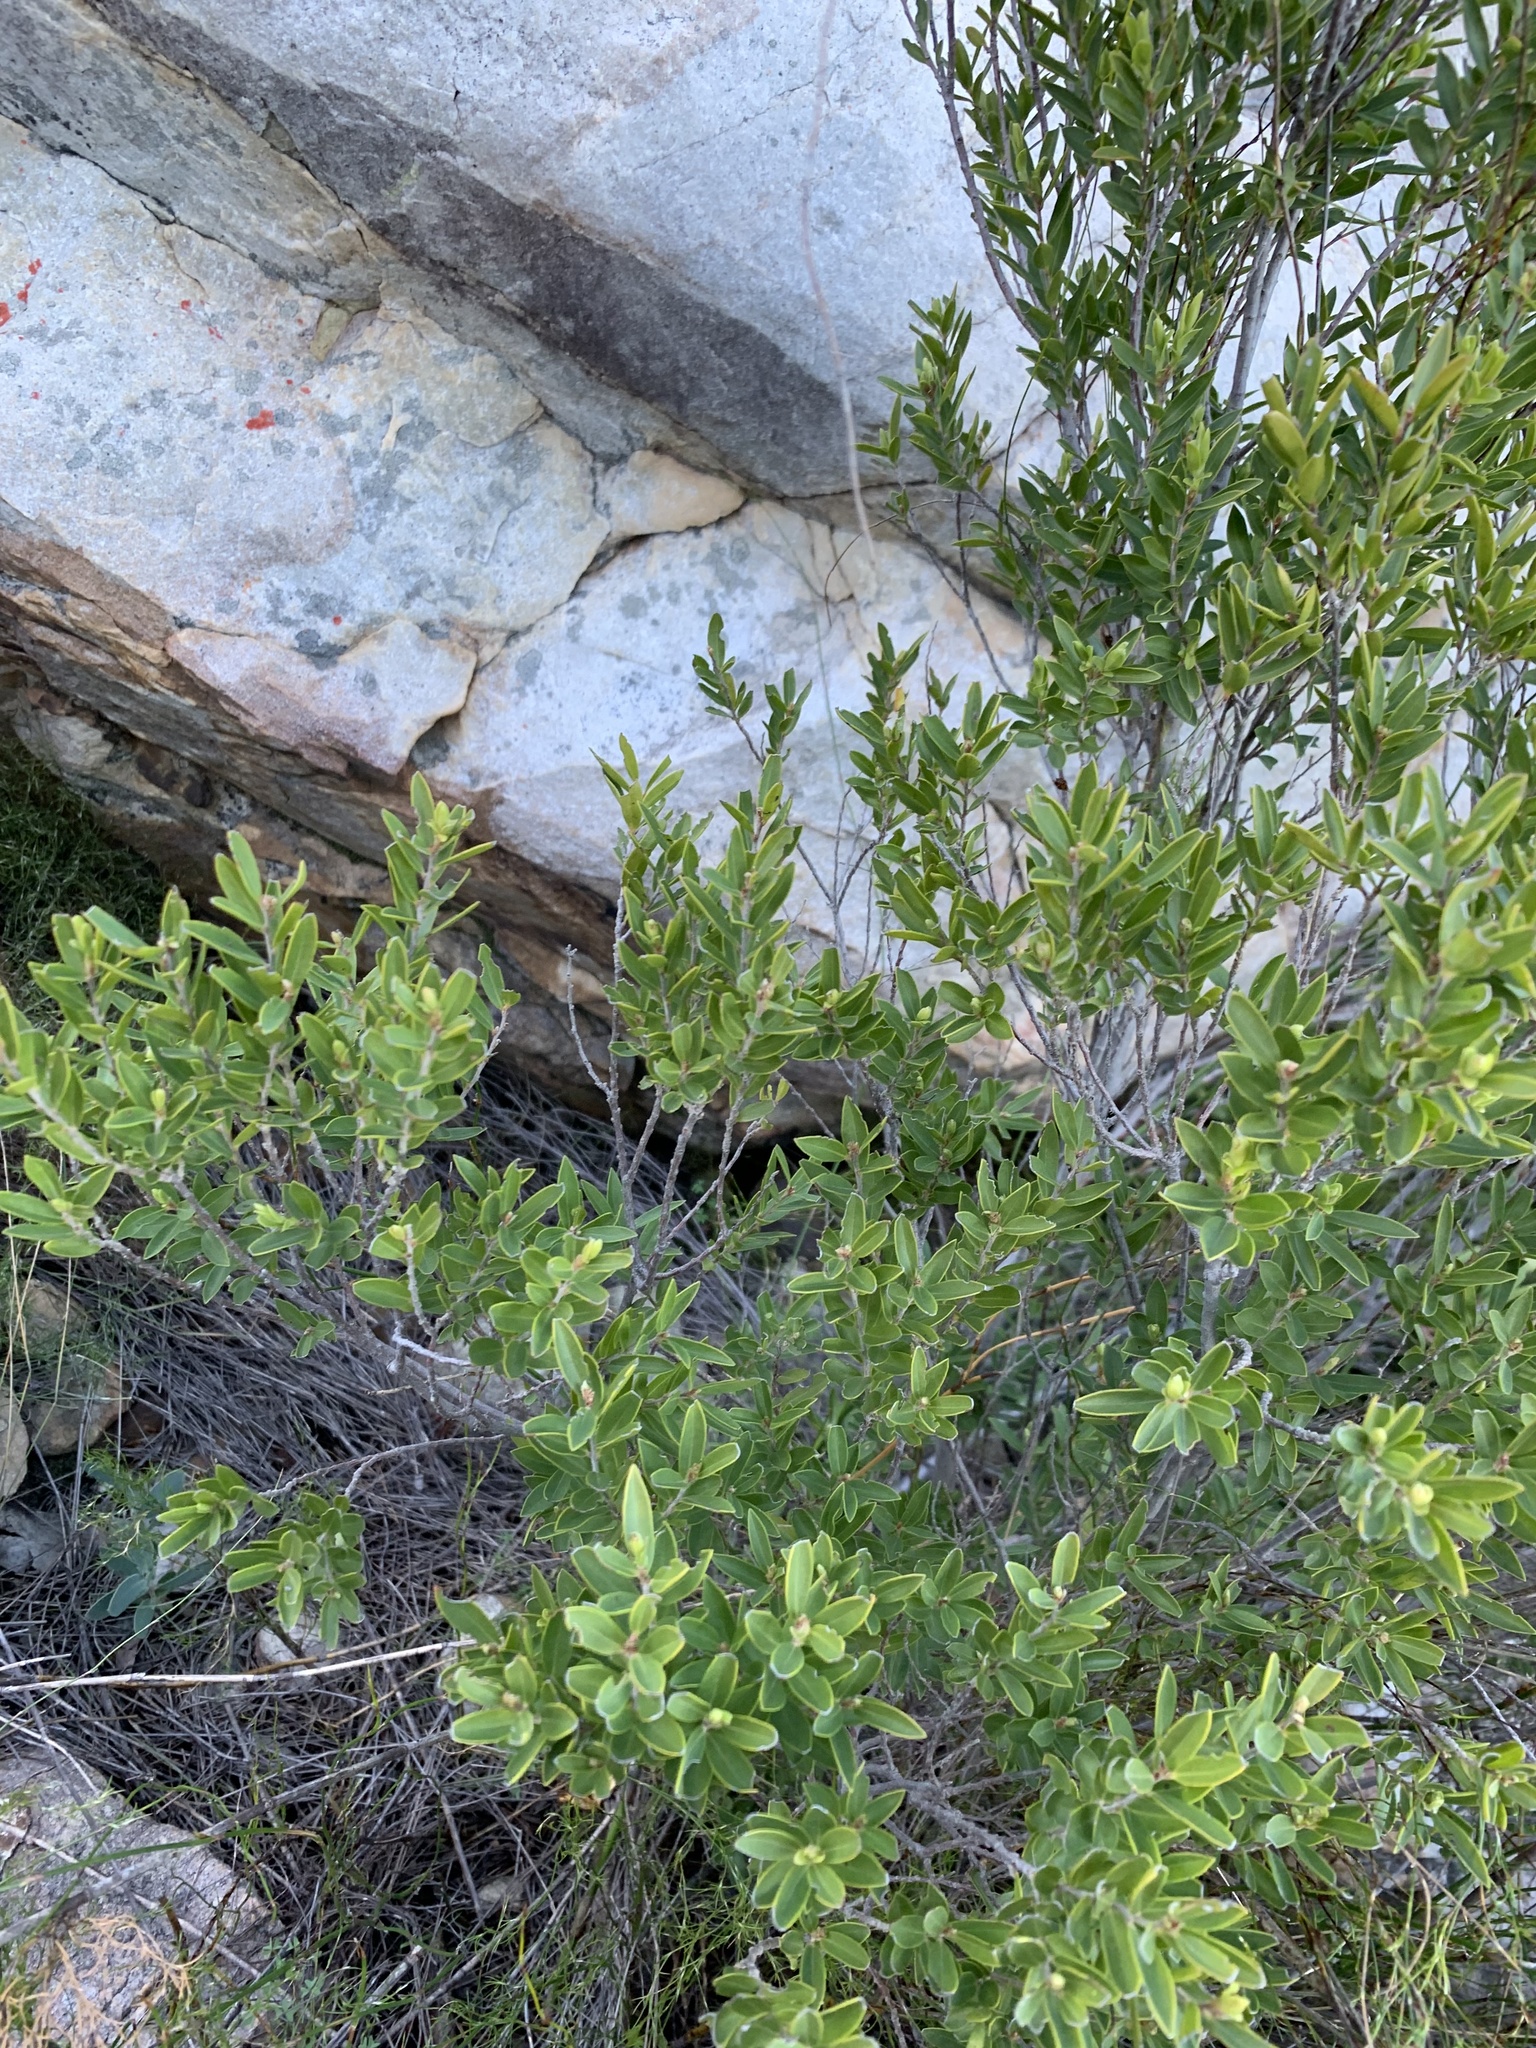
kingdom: Plantae
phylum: Tracheophyta
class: Magnoliopsida
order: Ericales
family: Ebenaceae
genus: Diospyros
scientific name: Diospyros glabra
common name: Fynbos star apple
